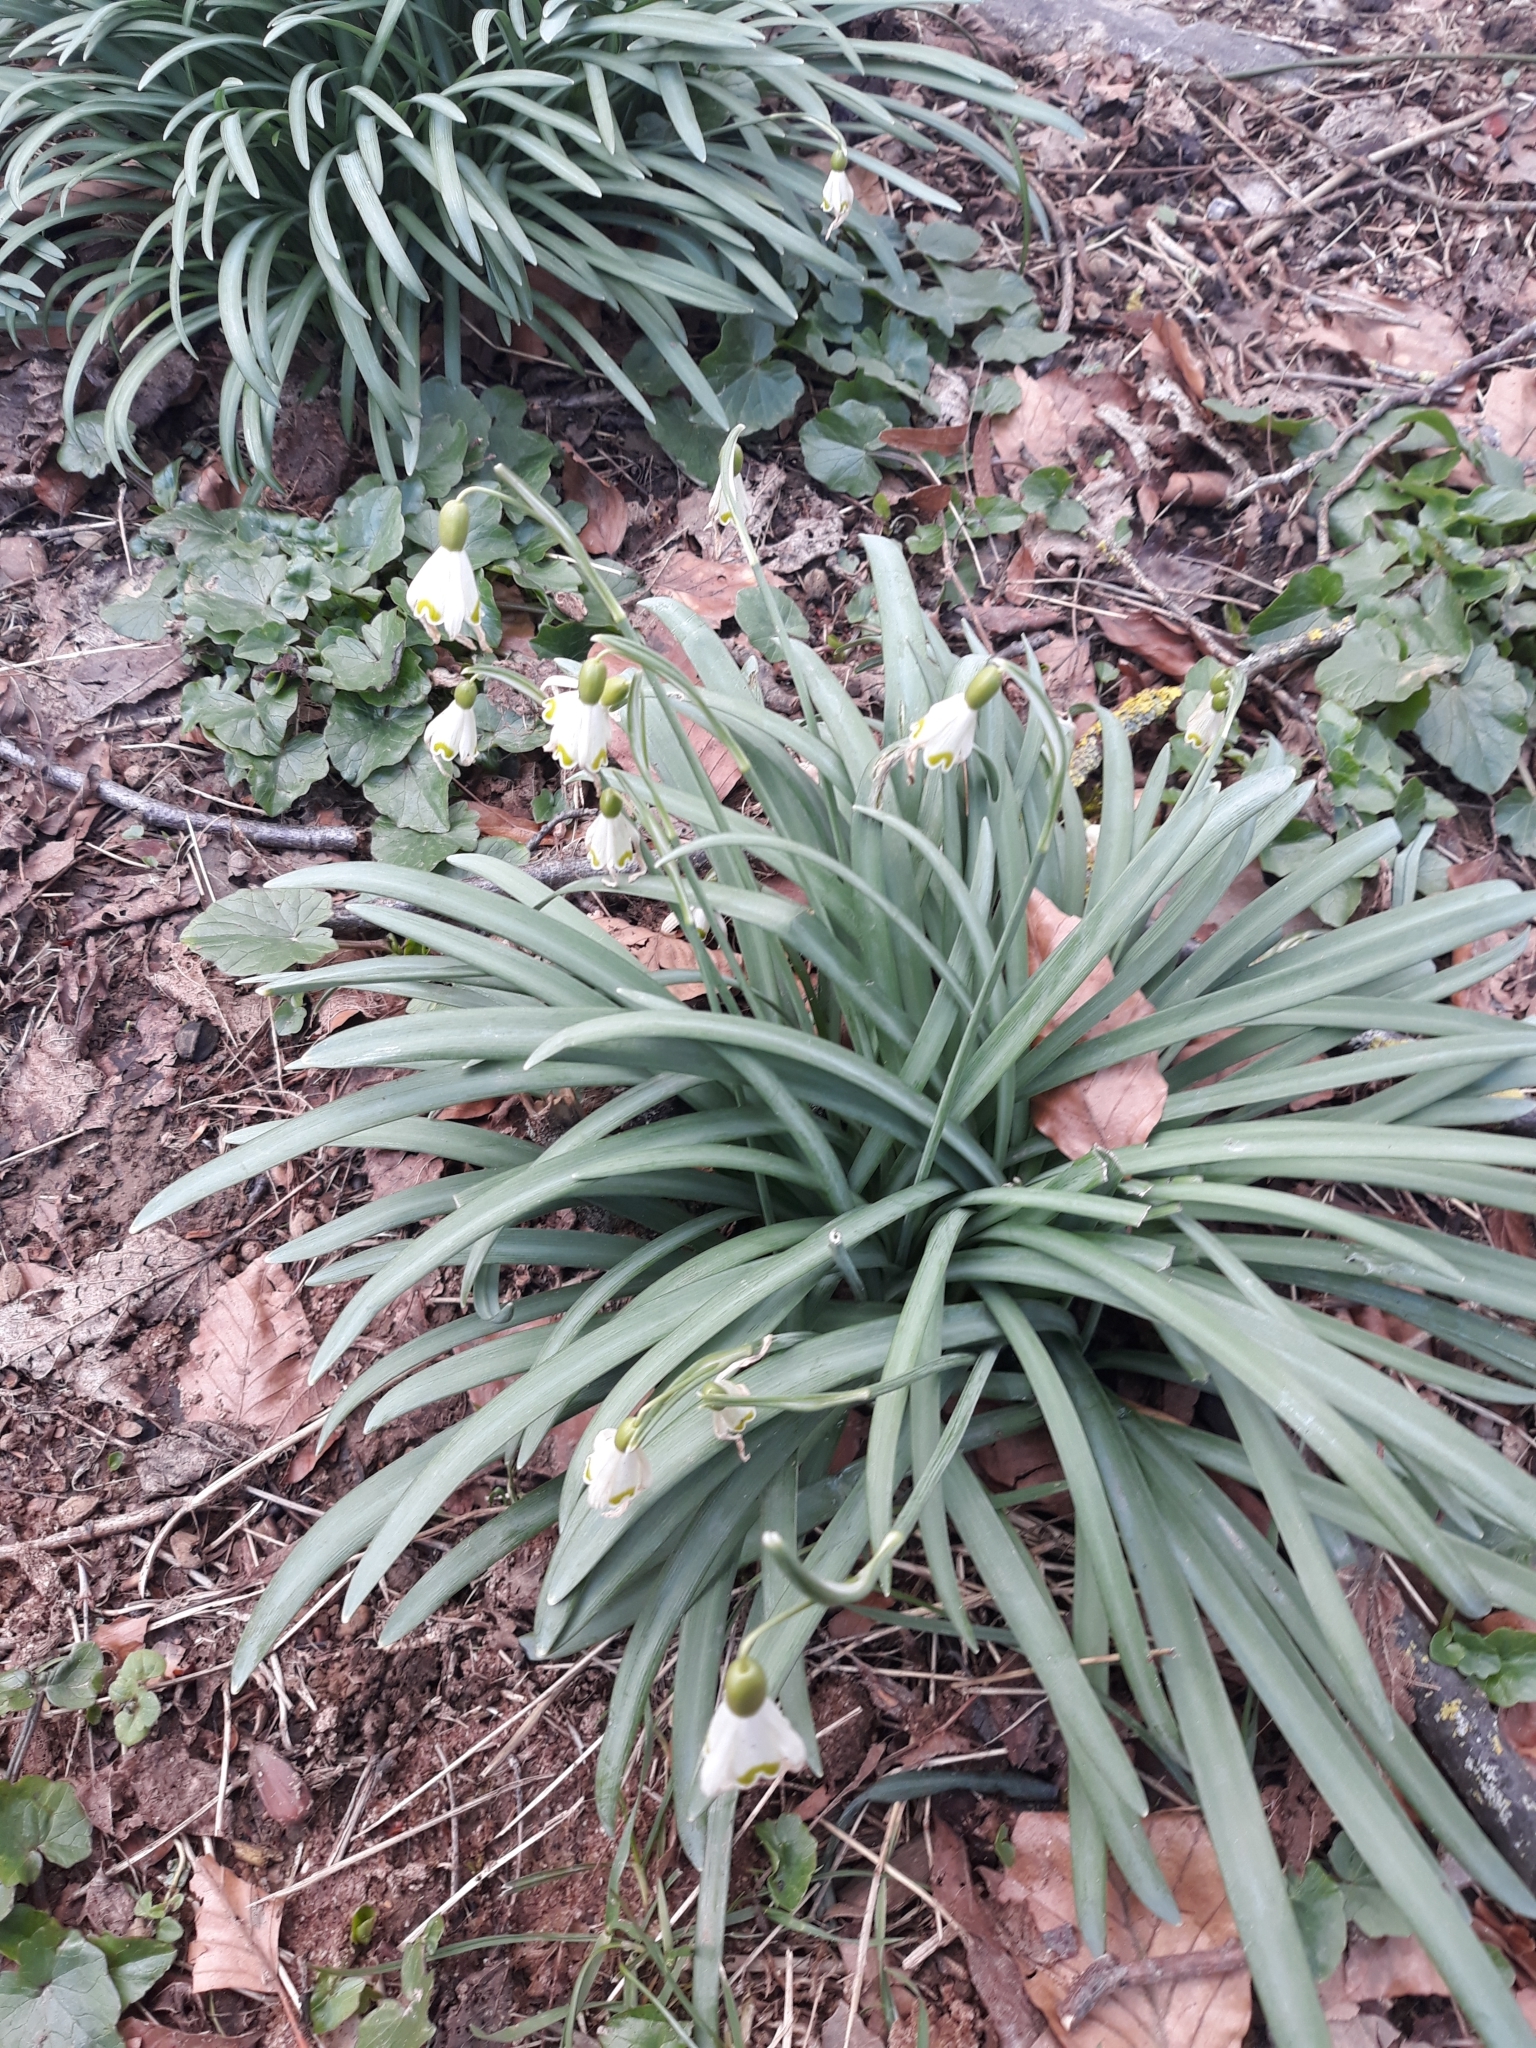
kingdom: Plantae
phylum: Tracheophyta
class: Liliopsida
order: Asparagales
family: Amaryllidaceae
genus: Galanthus
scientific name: Galanthus nivalis
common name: Snowdrop
